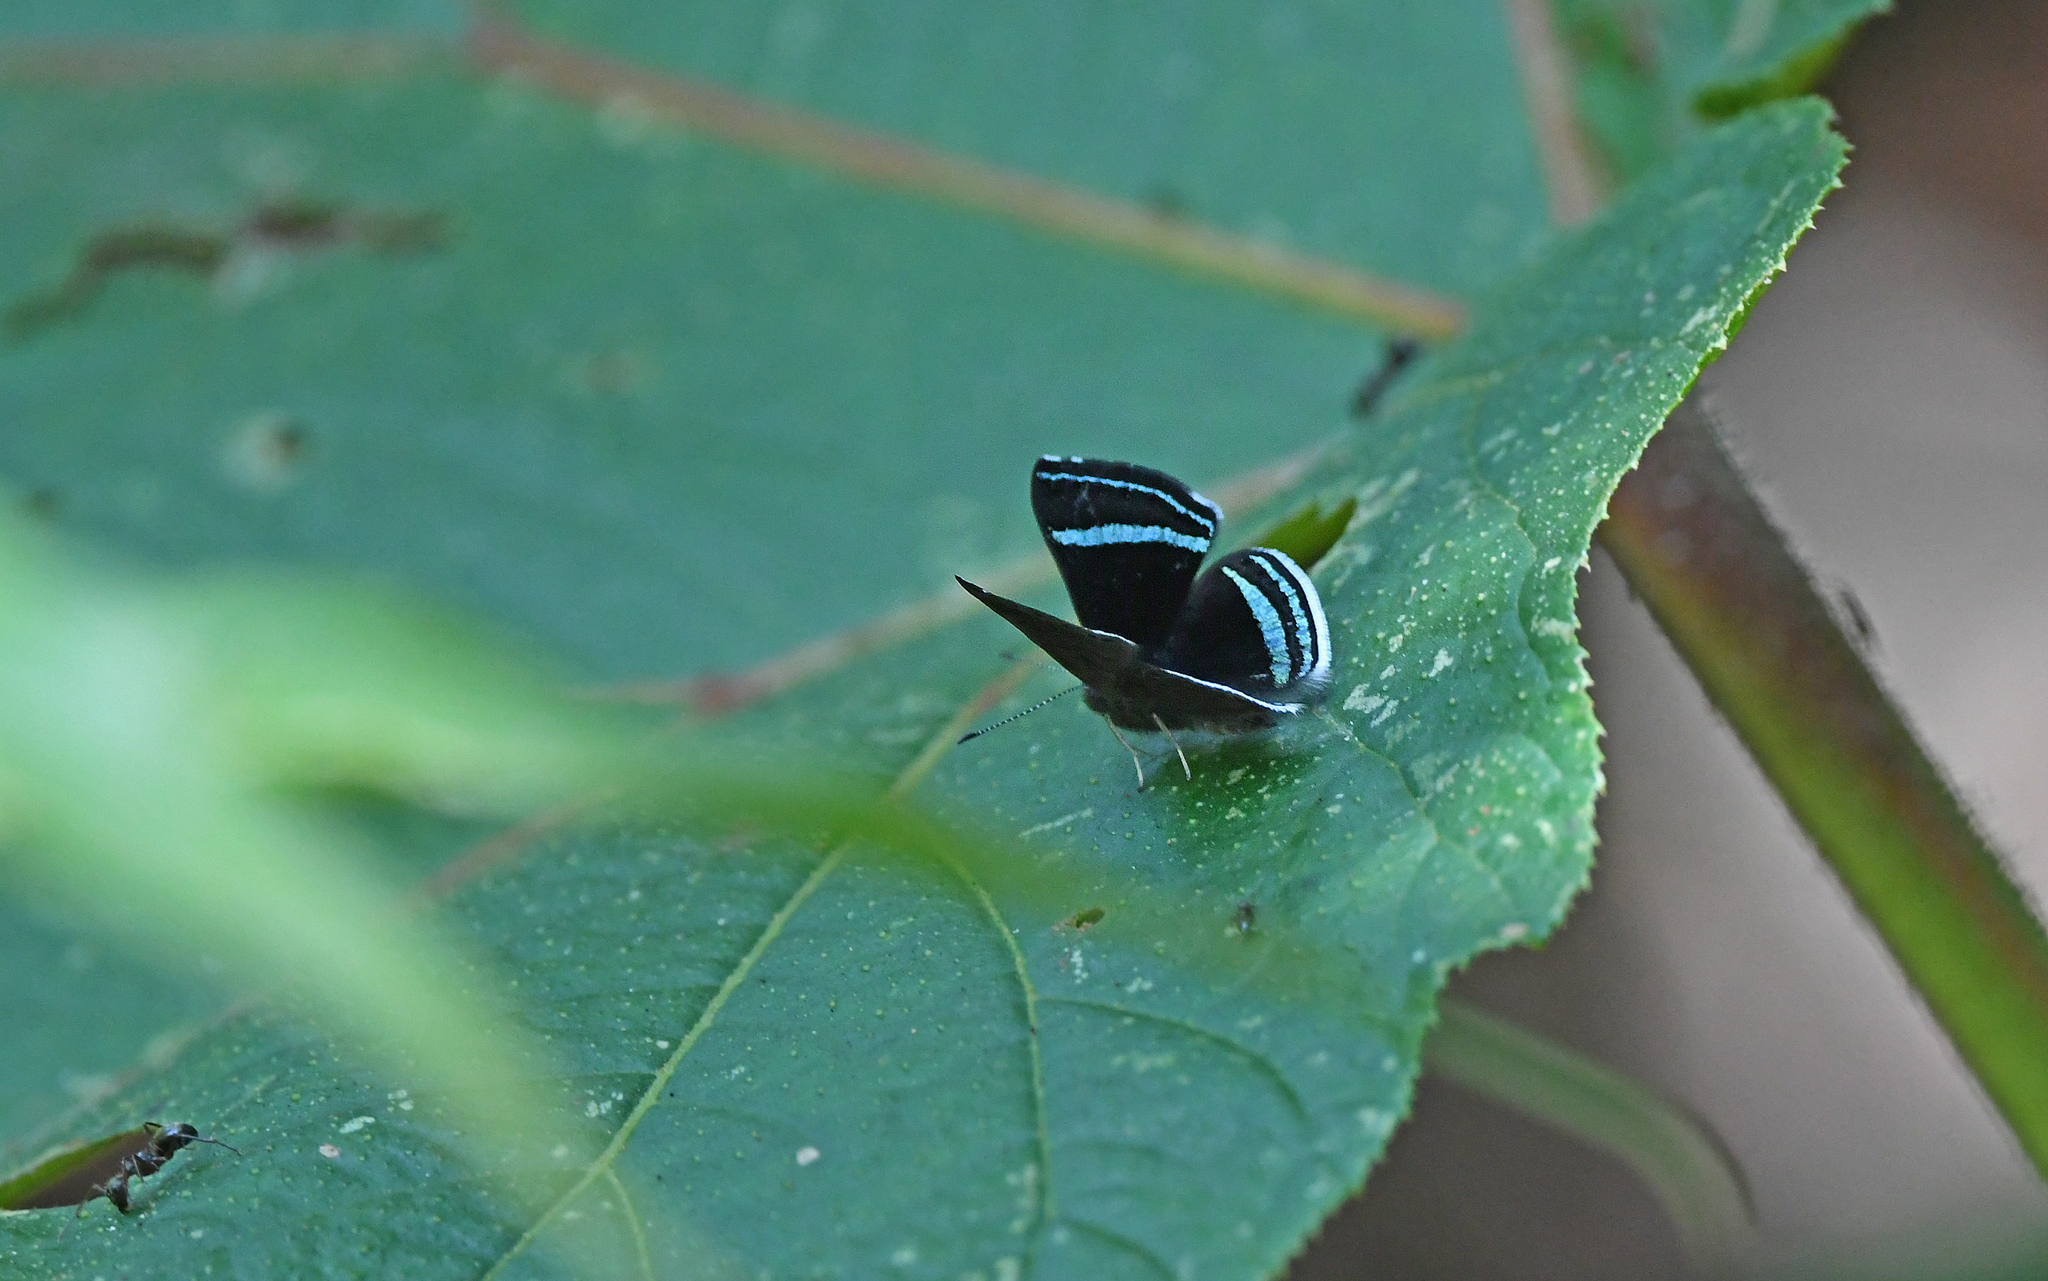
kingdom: Animalia
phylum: Arthropoda
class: Insecta
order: Lepidoptera
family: Riodinidae
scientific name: Riodinidae
